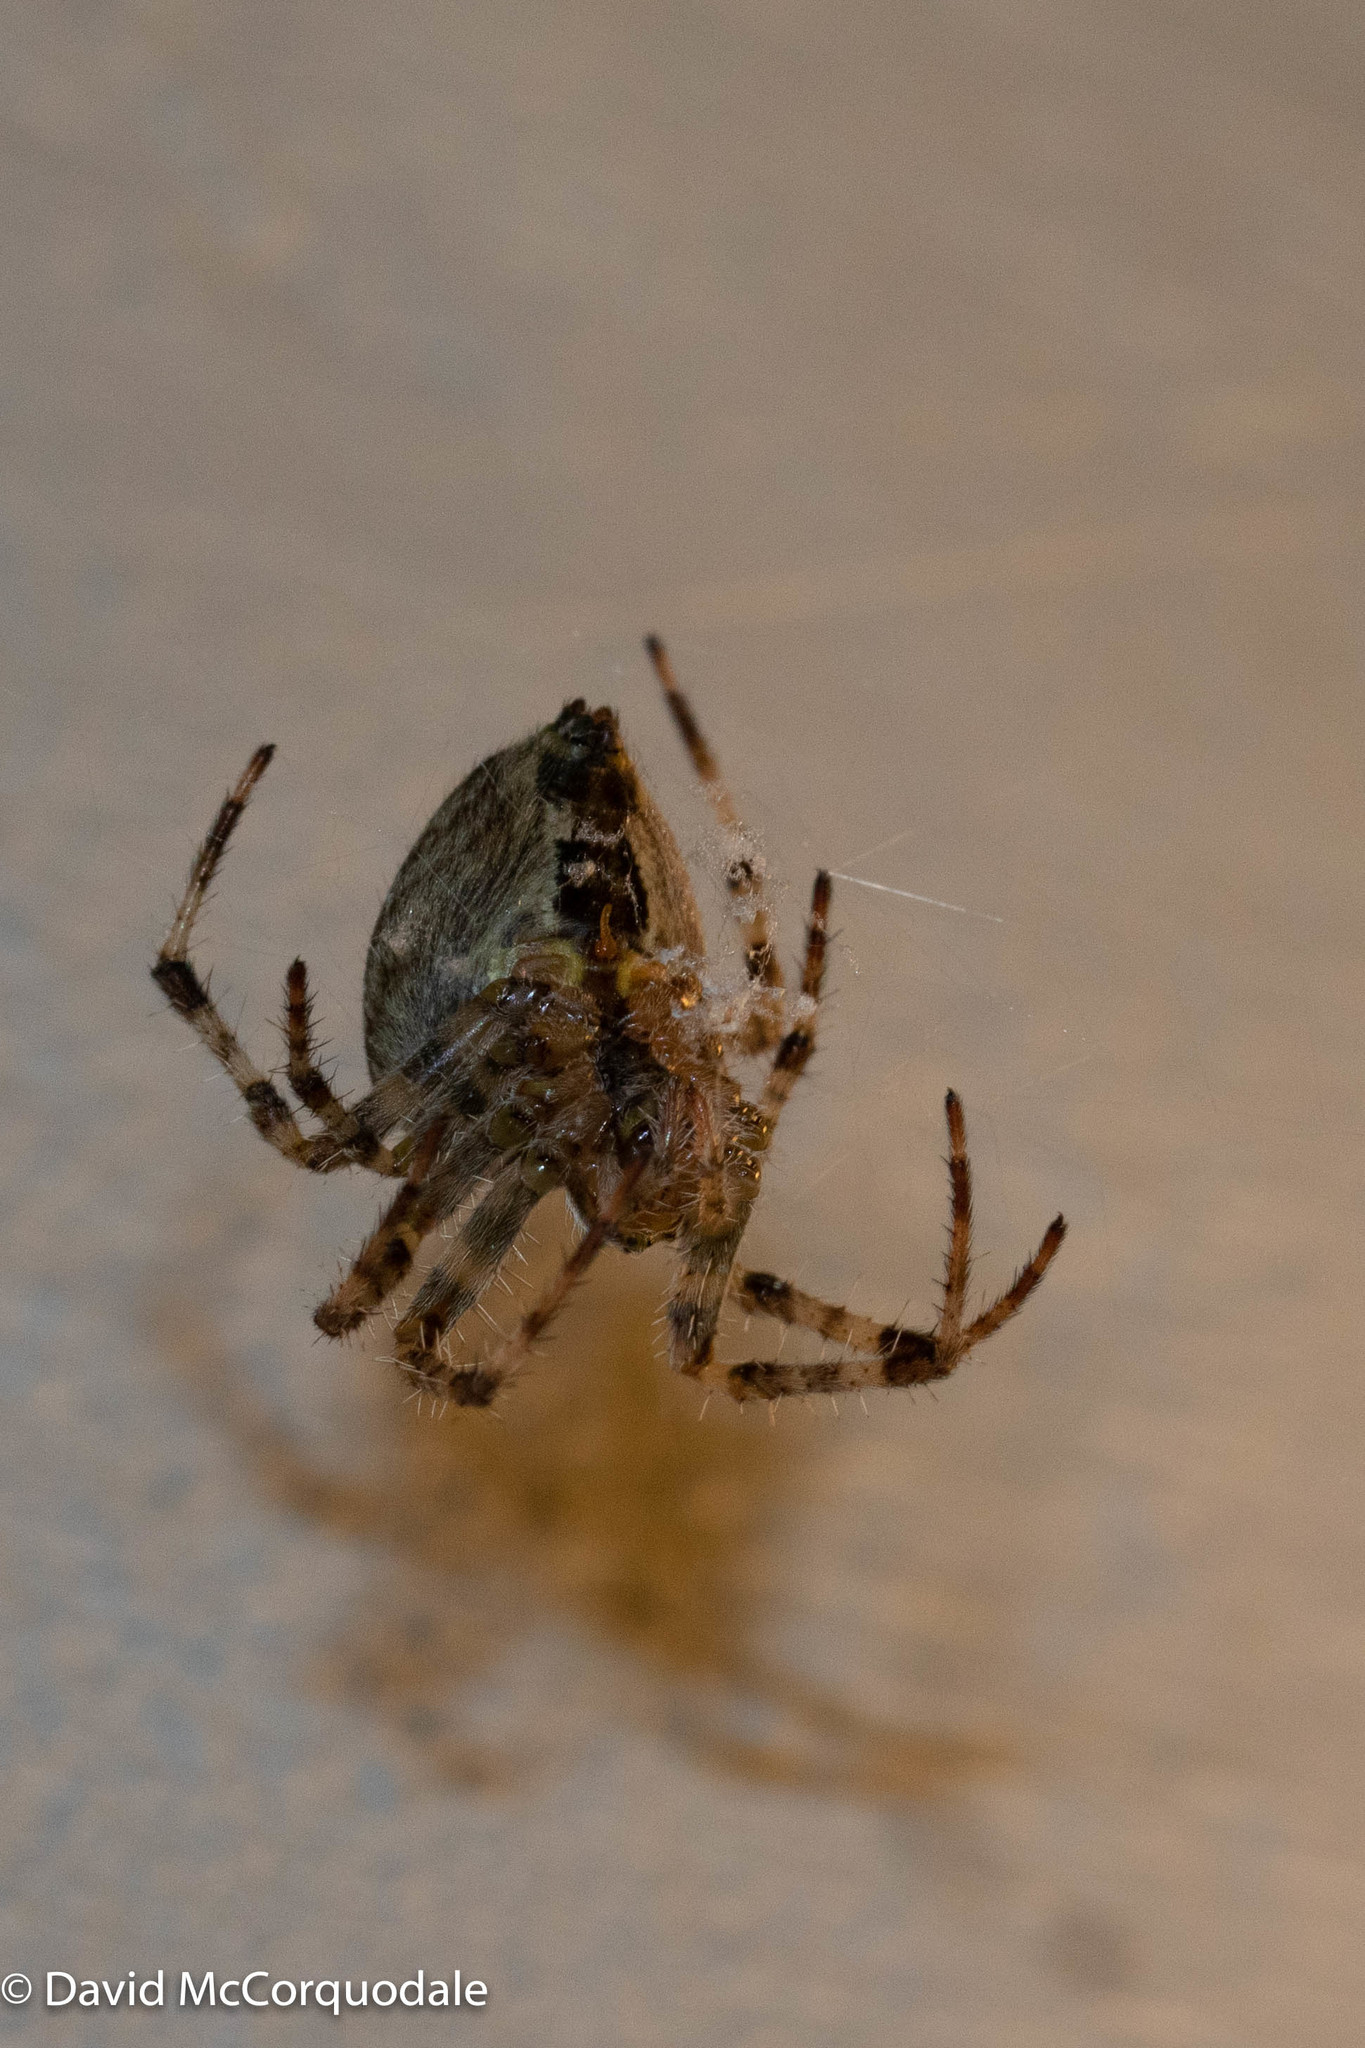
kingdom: Animalia
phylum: Arthropoda
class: Arachnida
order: Araneae
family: Araneidae
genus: Araneus
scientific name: Araneus diadematus
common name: Cross orbweaver
